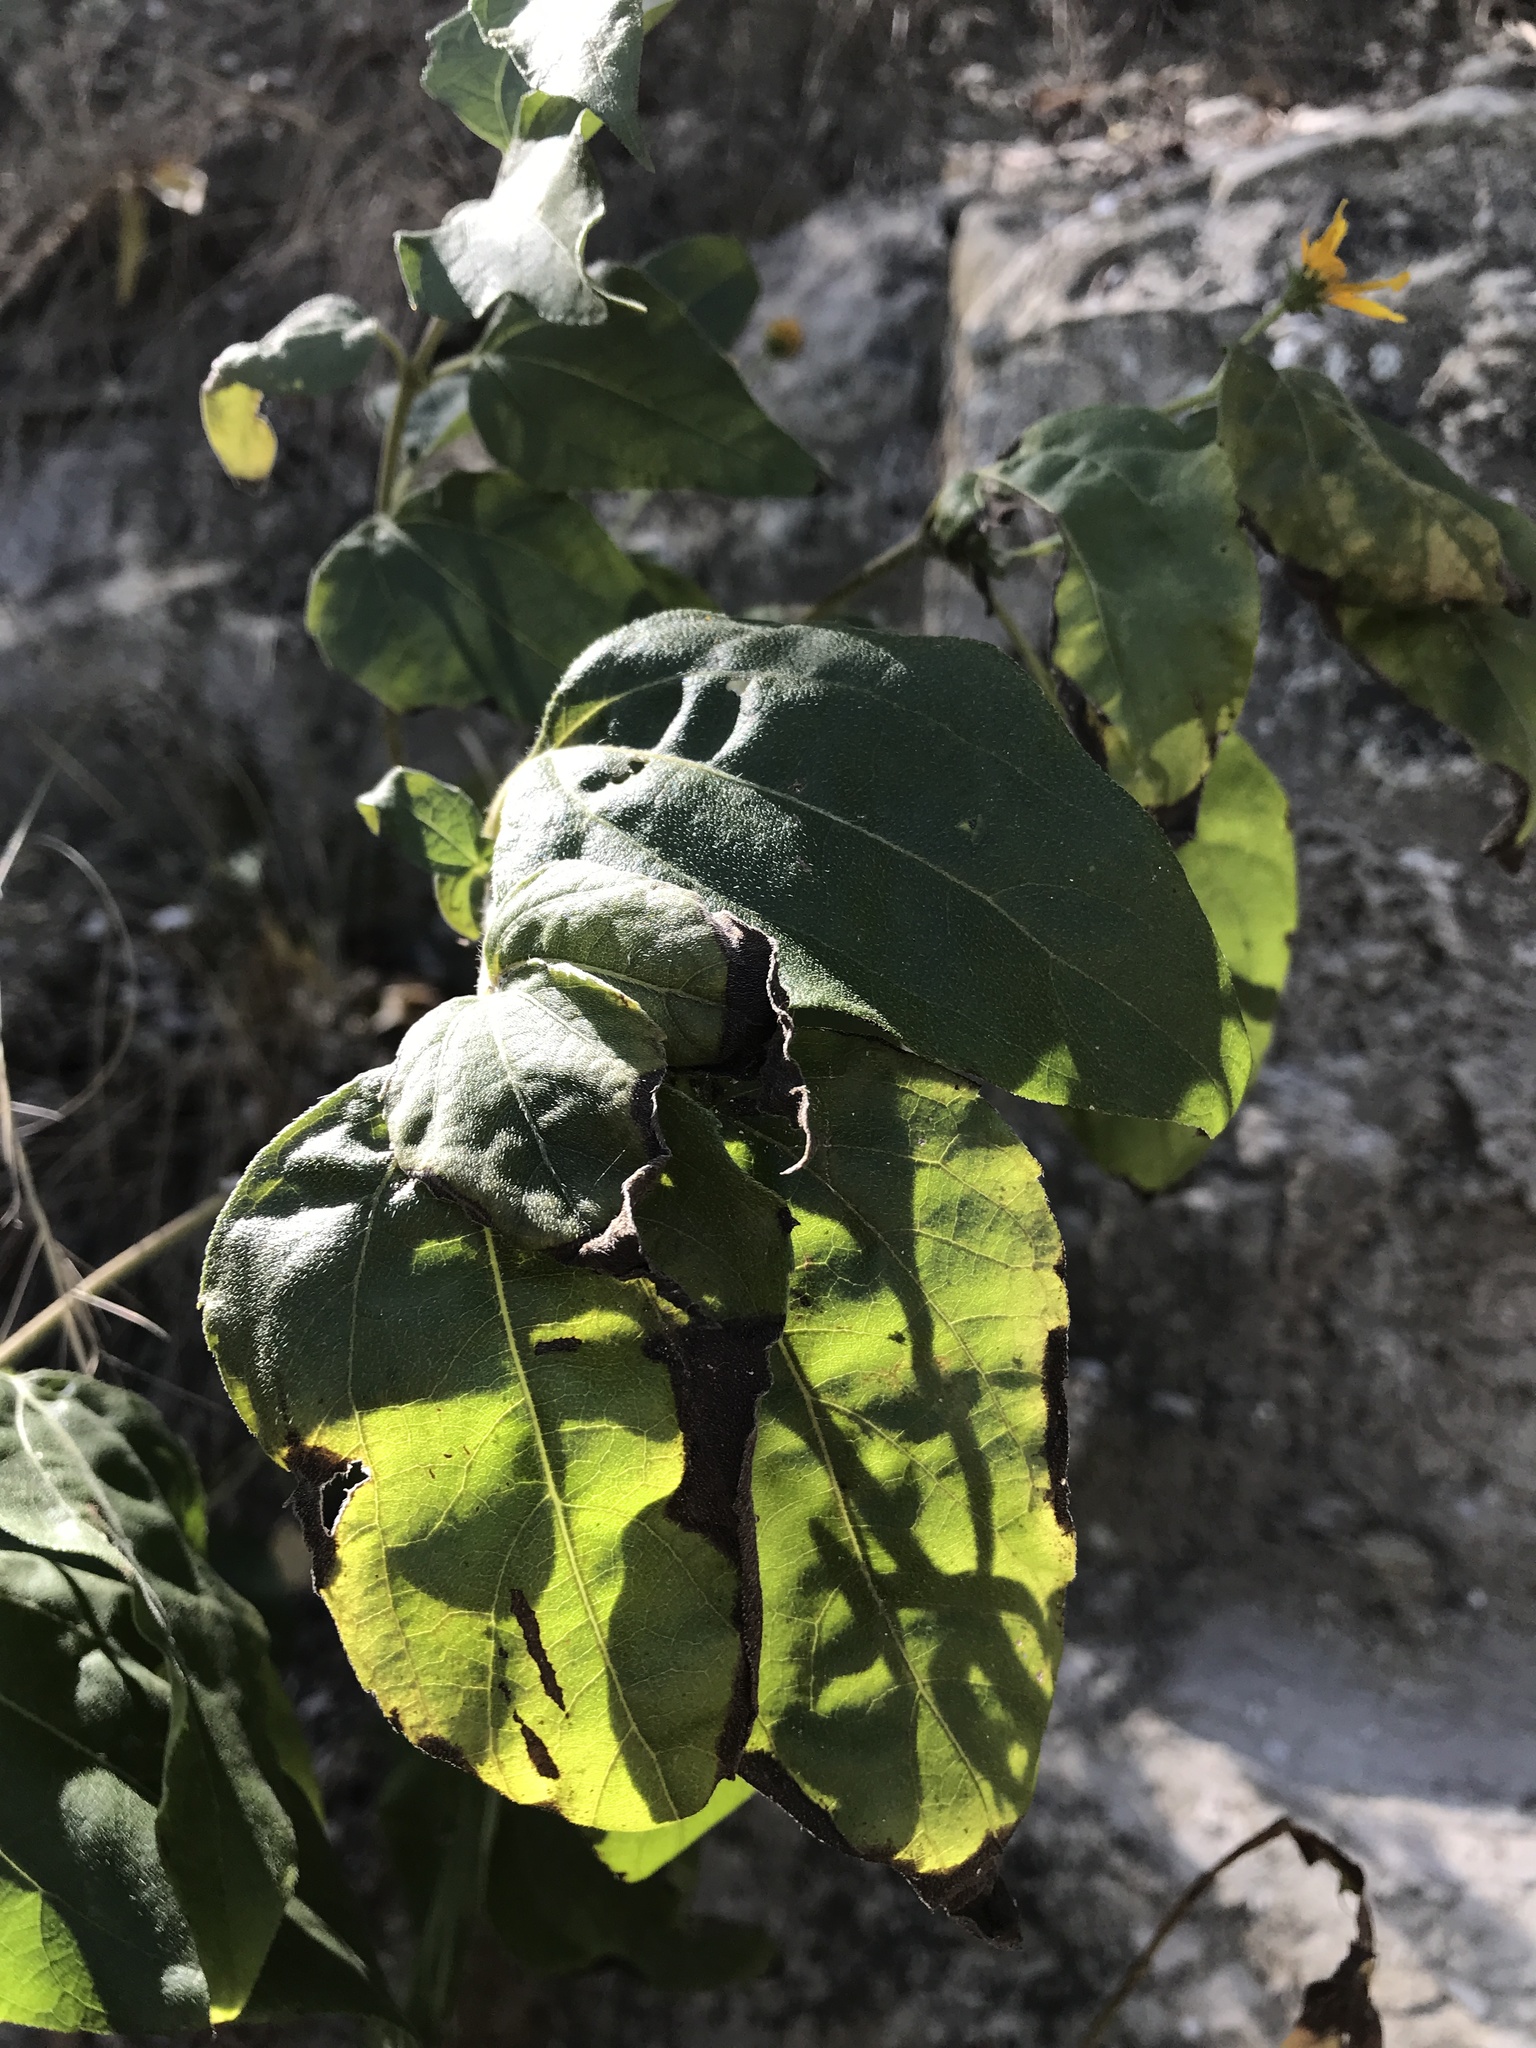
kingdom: Plantae
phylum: Tracheophyta
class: Magnoliopsida
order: Asterales
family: Asteraceae
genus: Viguiera
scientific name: Viguiera dentata
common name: Toothleaf
